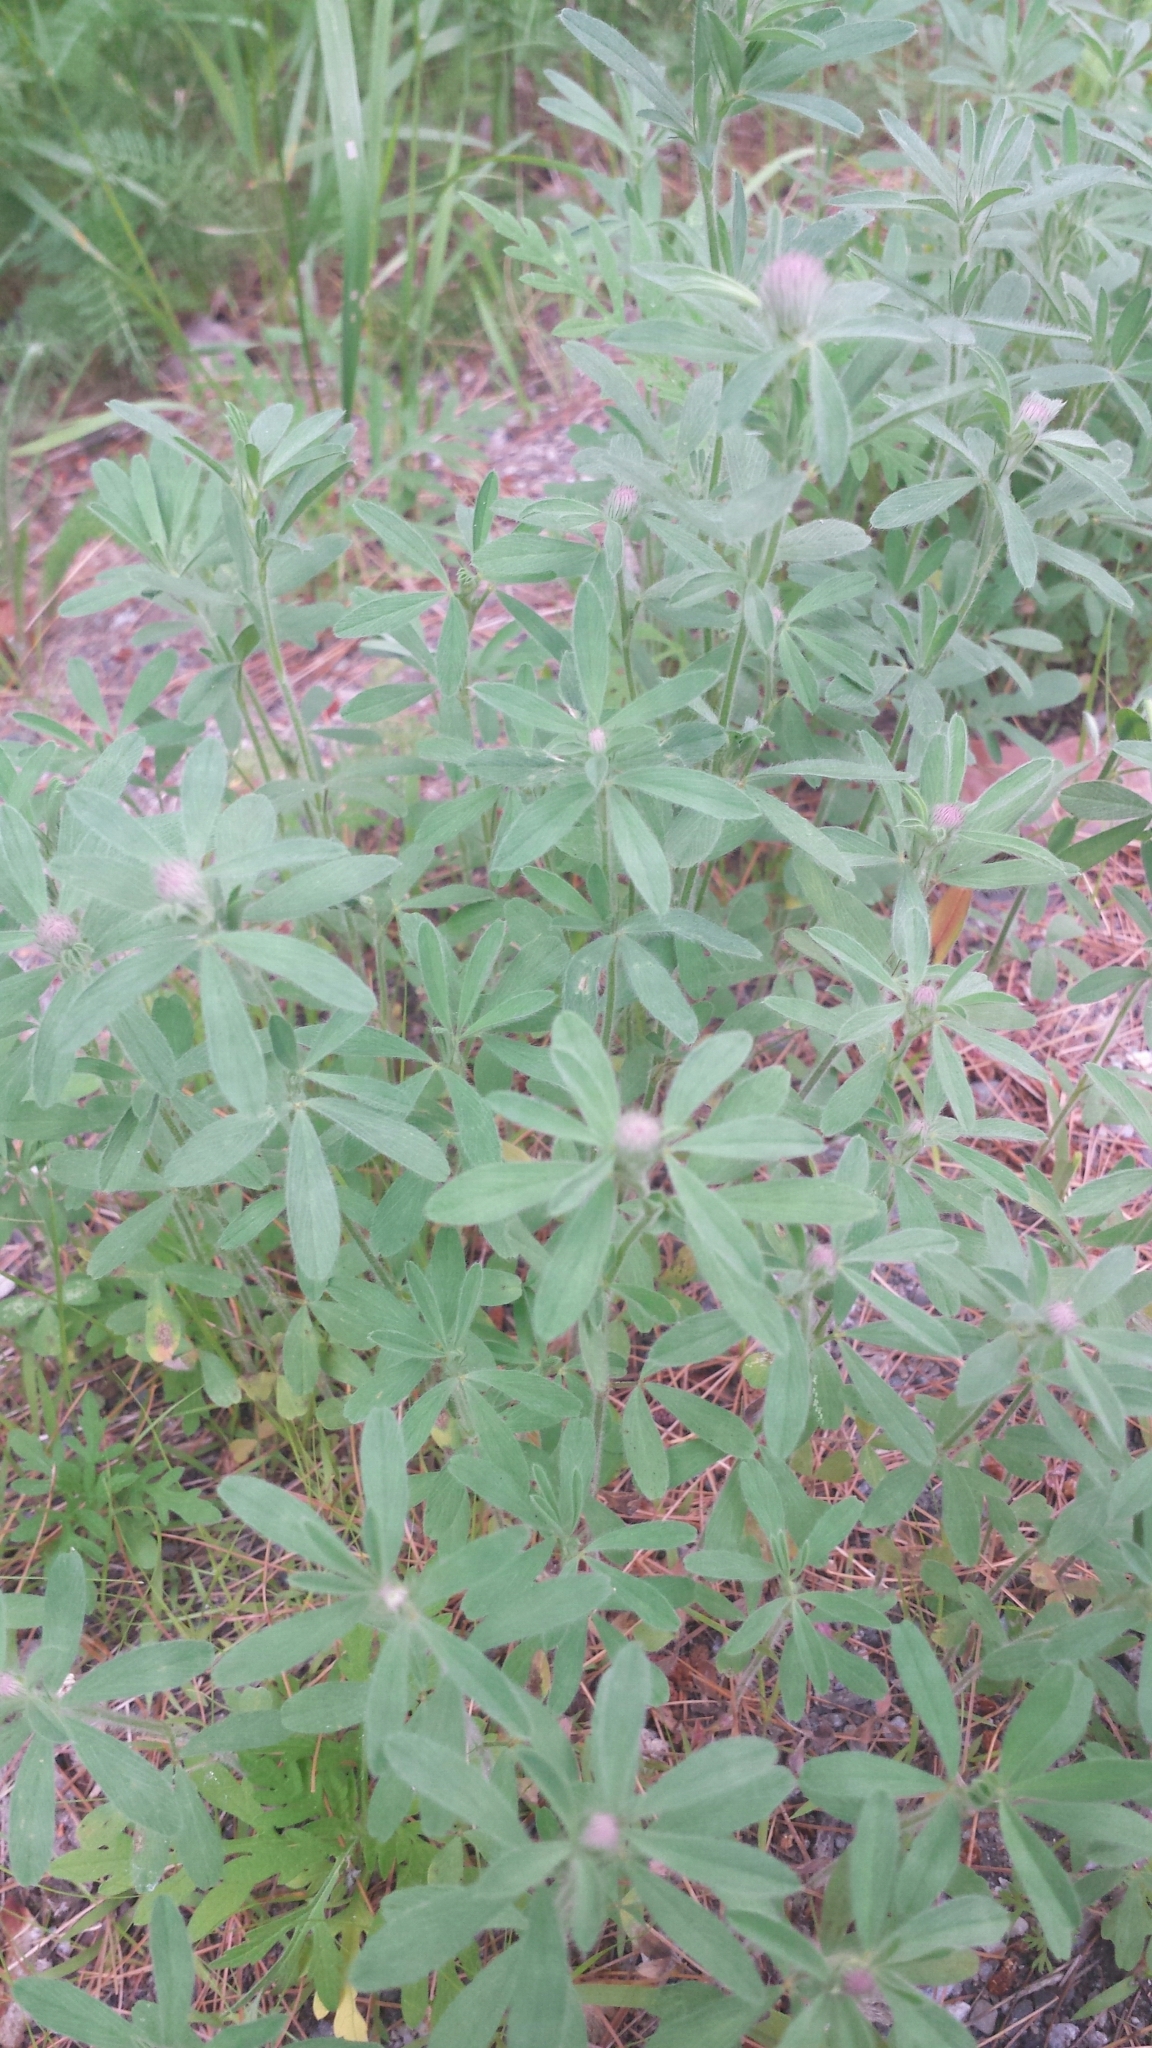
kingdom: Plantae
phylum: Tracheophyta
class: Magnoliopsida
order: Fabales
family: Fabaceae
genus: Trifolium
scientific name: Trifolium arvense
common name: Hare's-foot clover
